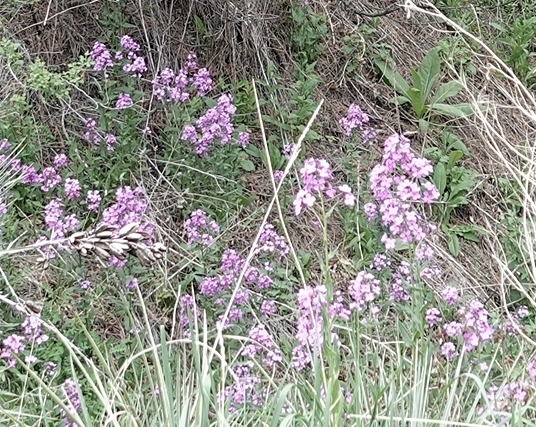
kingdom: Plantae
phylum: Tracheophyta
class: Magnoliopsida
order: Brassicales
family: Brassicaceae
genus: Hesperis
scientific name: Hesperis matronalis
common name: Dame's-violet
